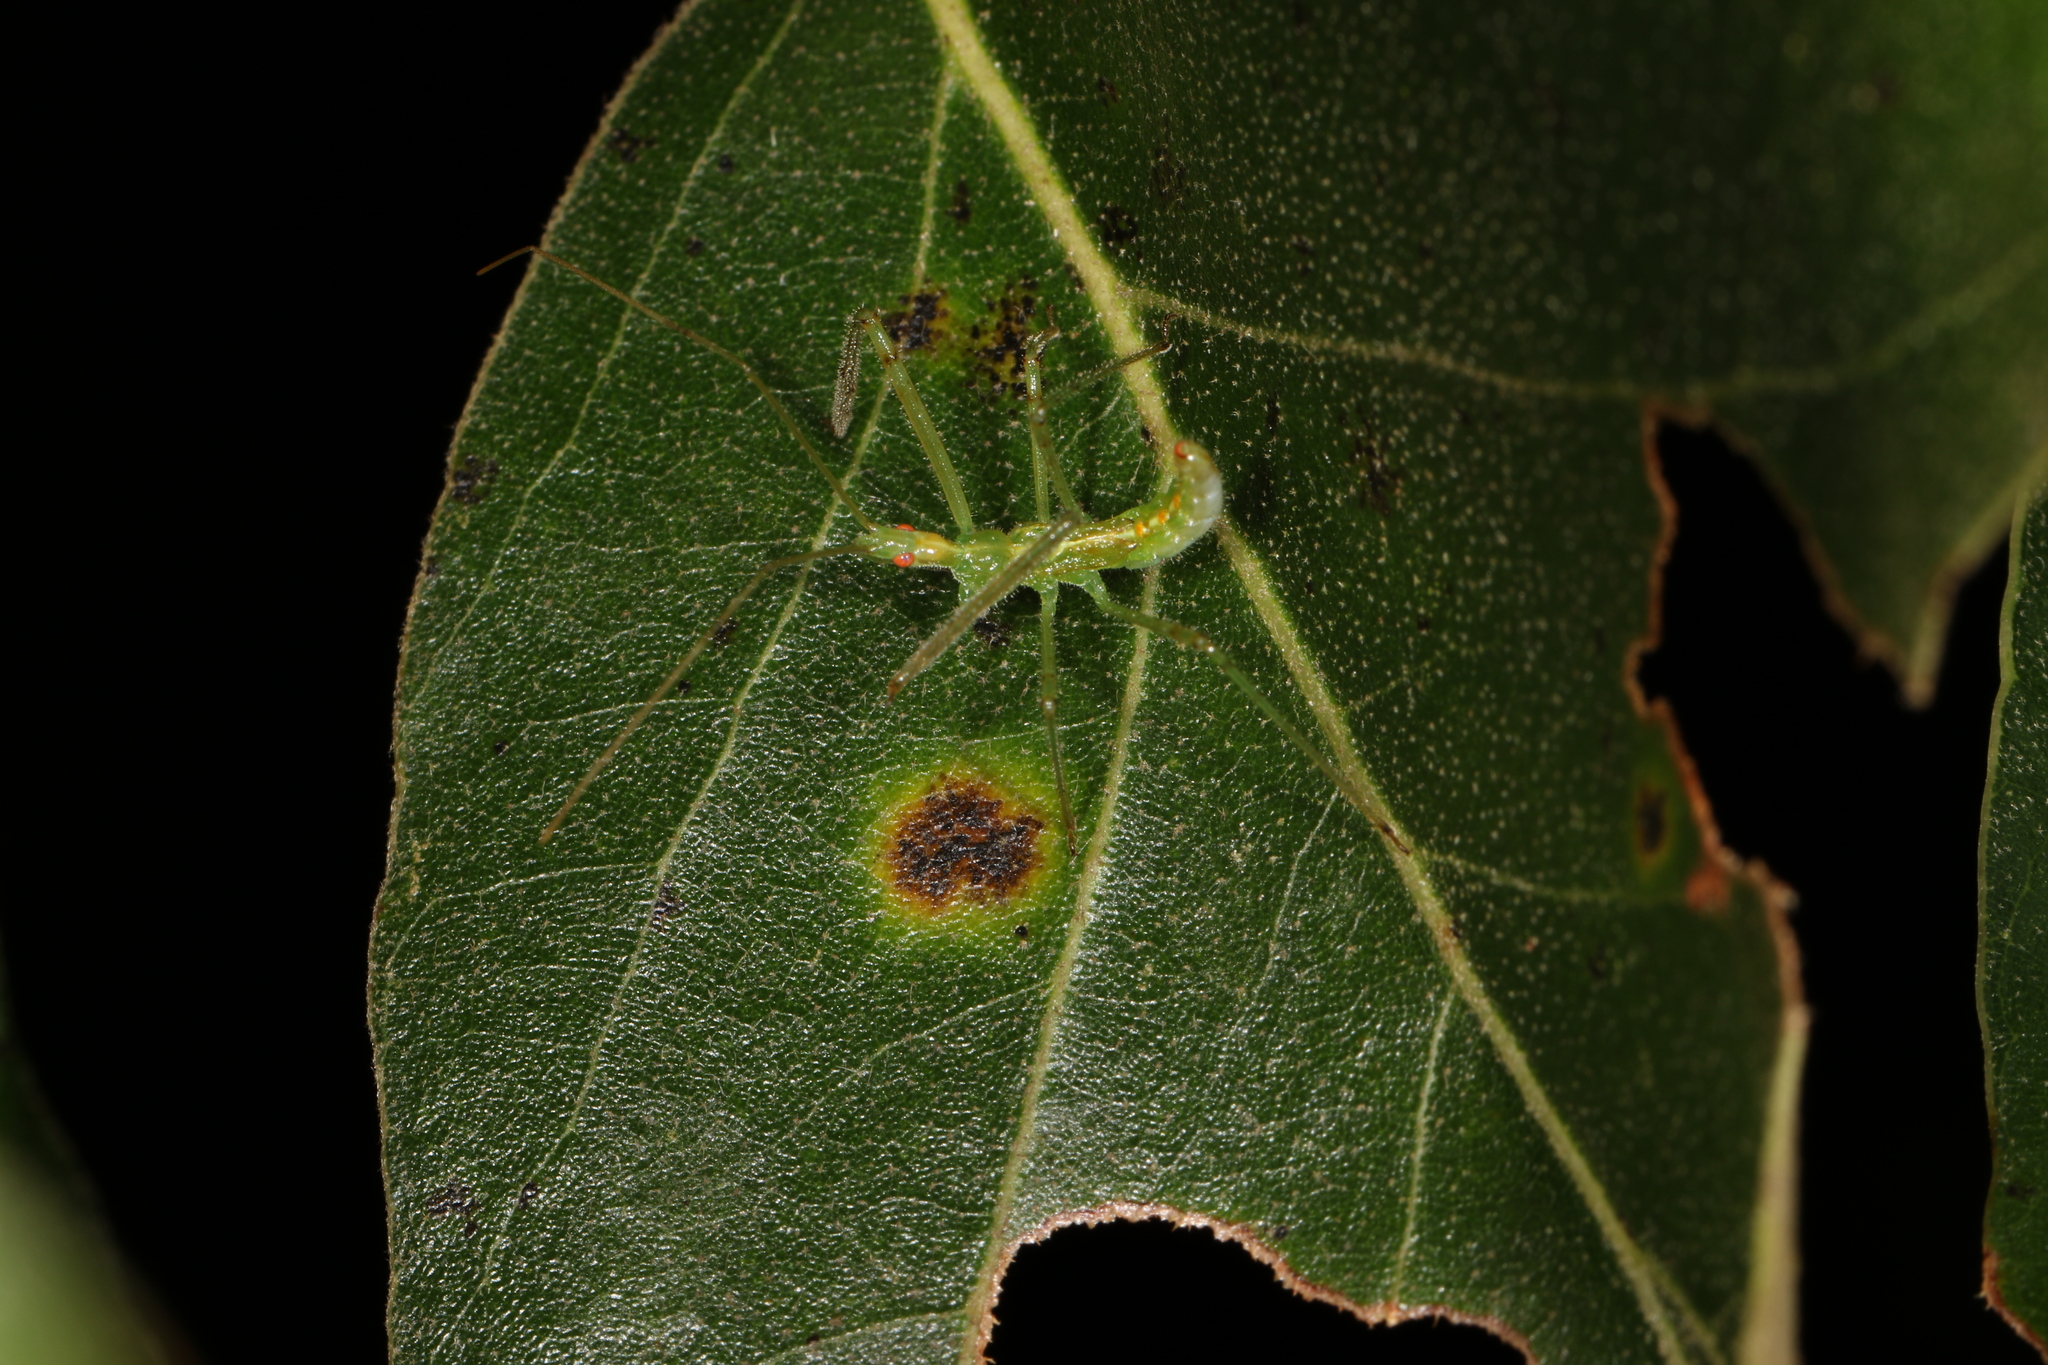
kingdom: Animalia
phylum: Arthropoda
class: Insecta
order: Hemiptera
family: Reduviidae
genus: Zelus
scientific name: Zelus luridus
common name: Pale green assassin bug
